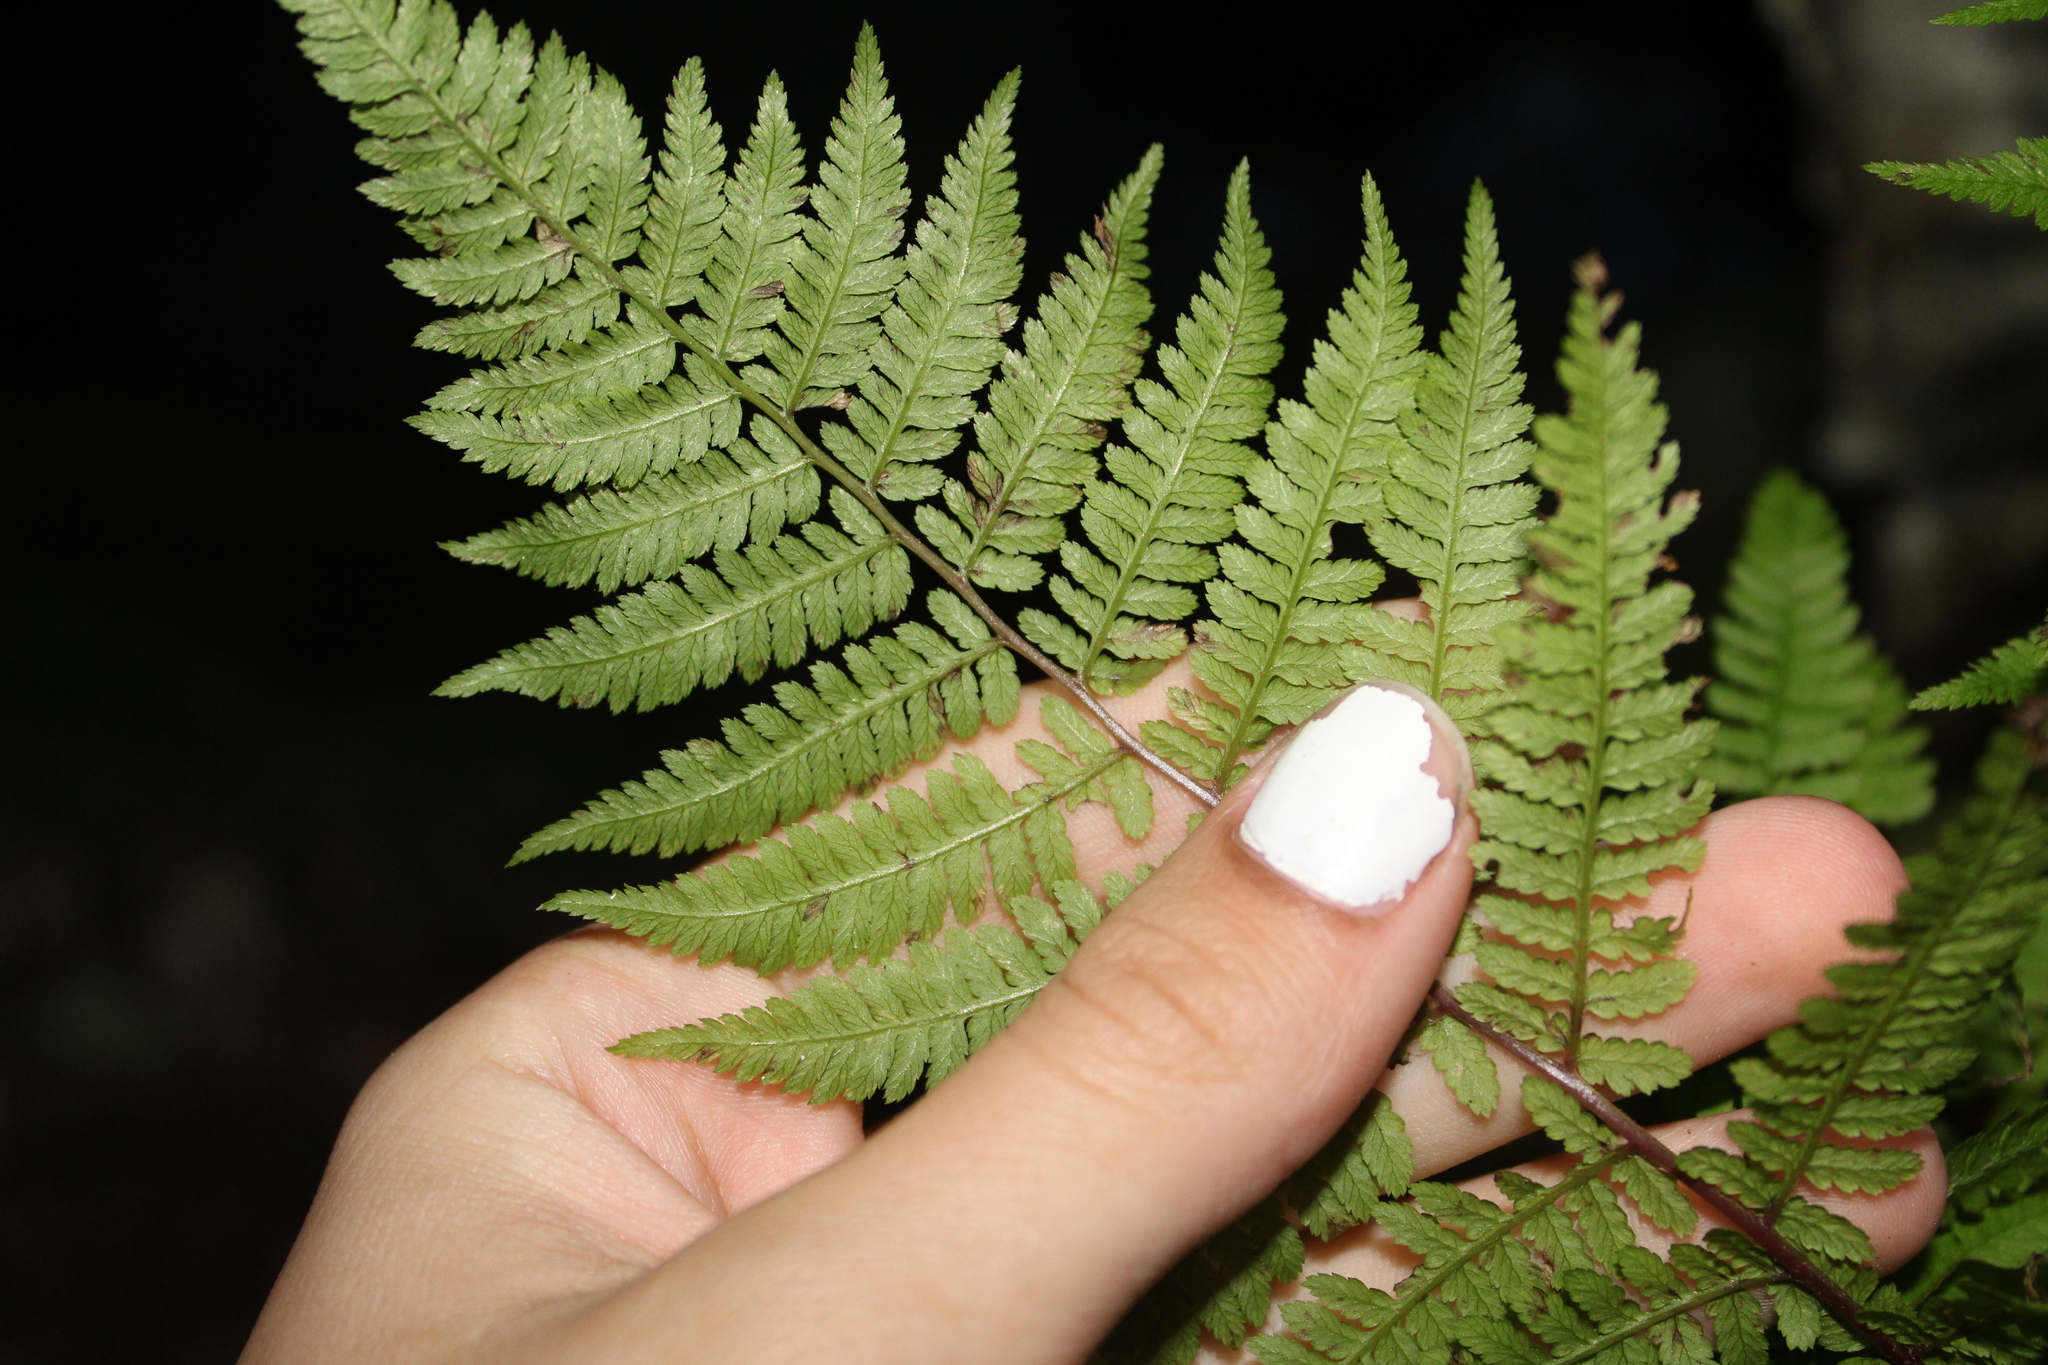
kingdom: Plantae
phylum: Tracheophyta
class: Polypodiopsida
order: Polypodiales
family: Athyriaceae
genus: Athyrium
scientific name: Athyrium angustum
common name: Northern lady fern
